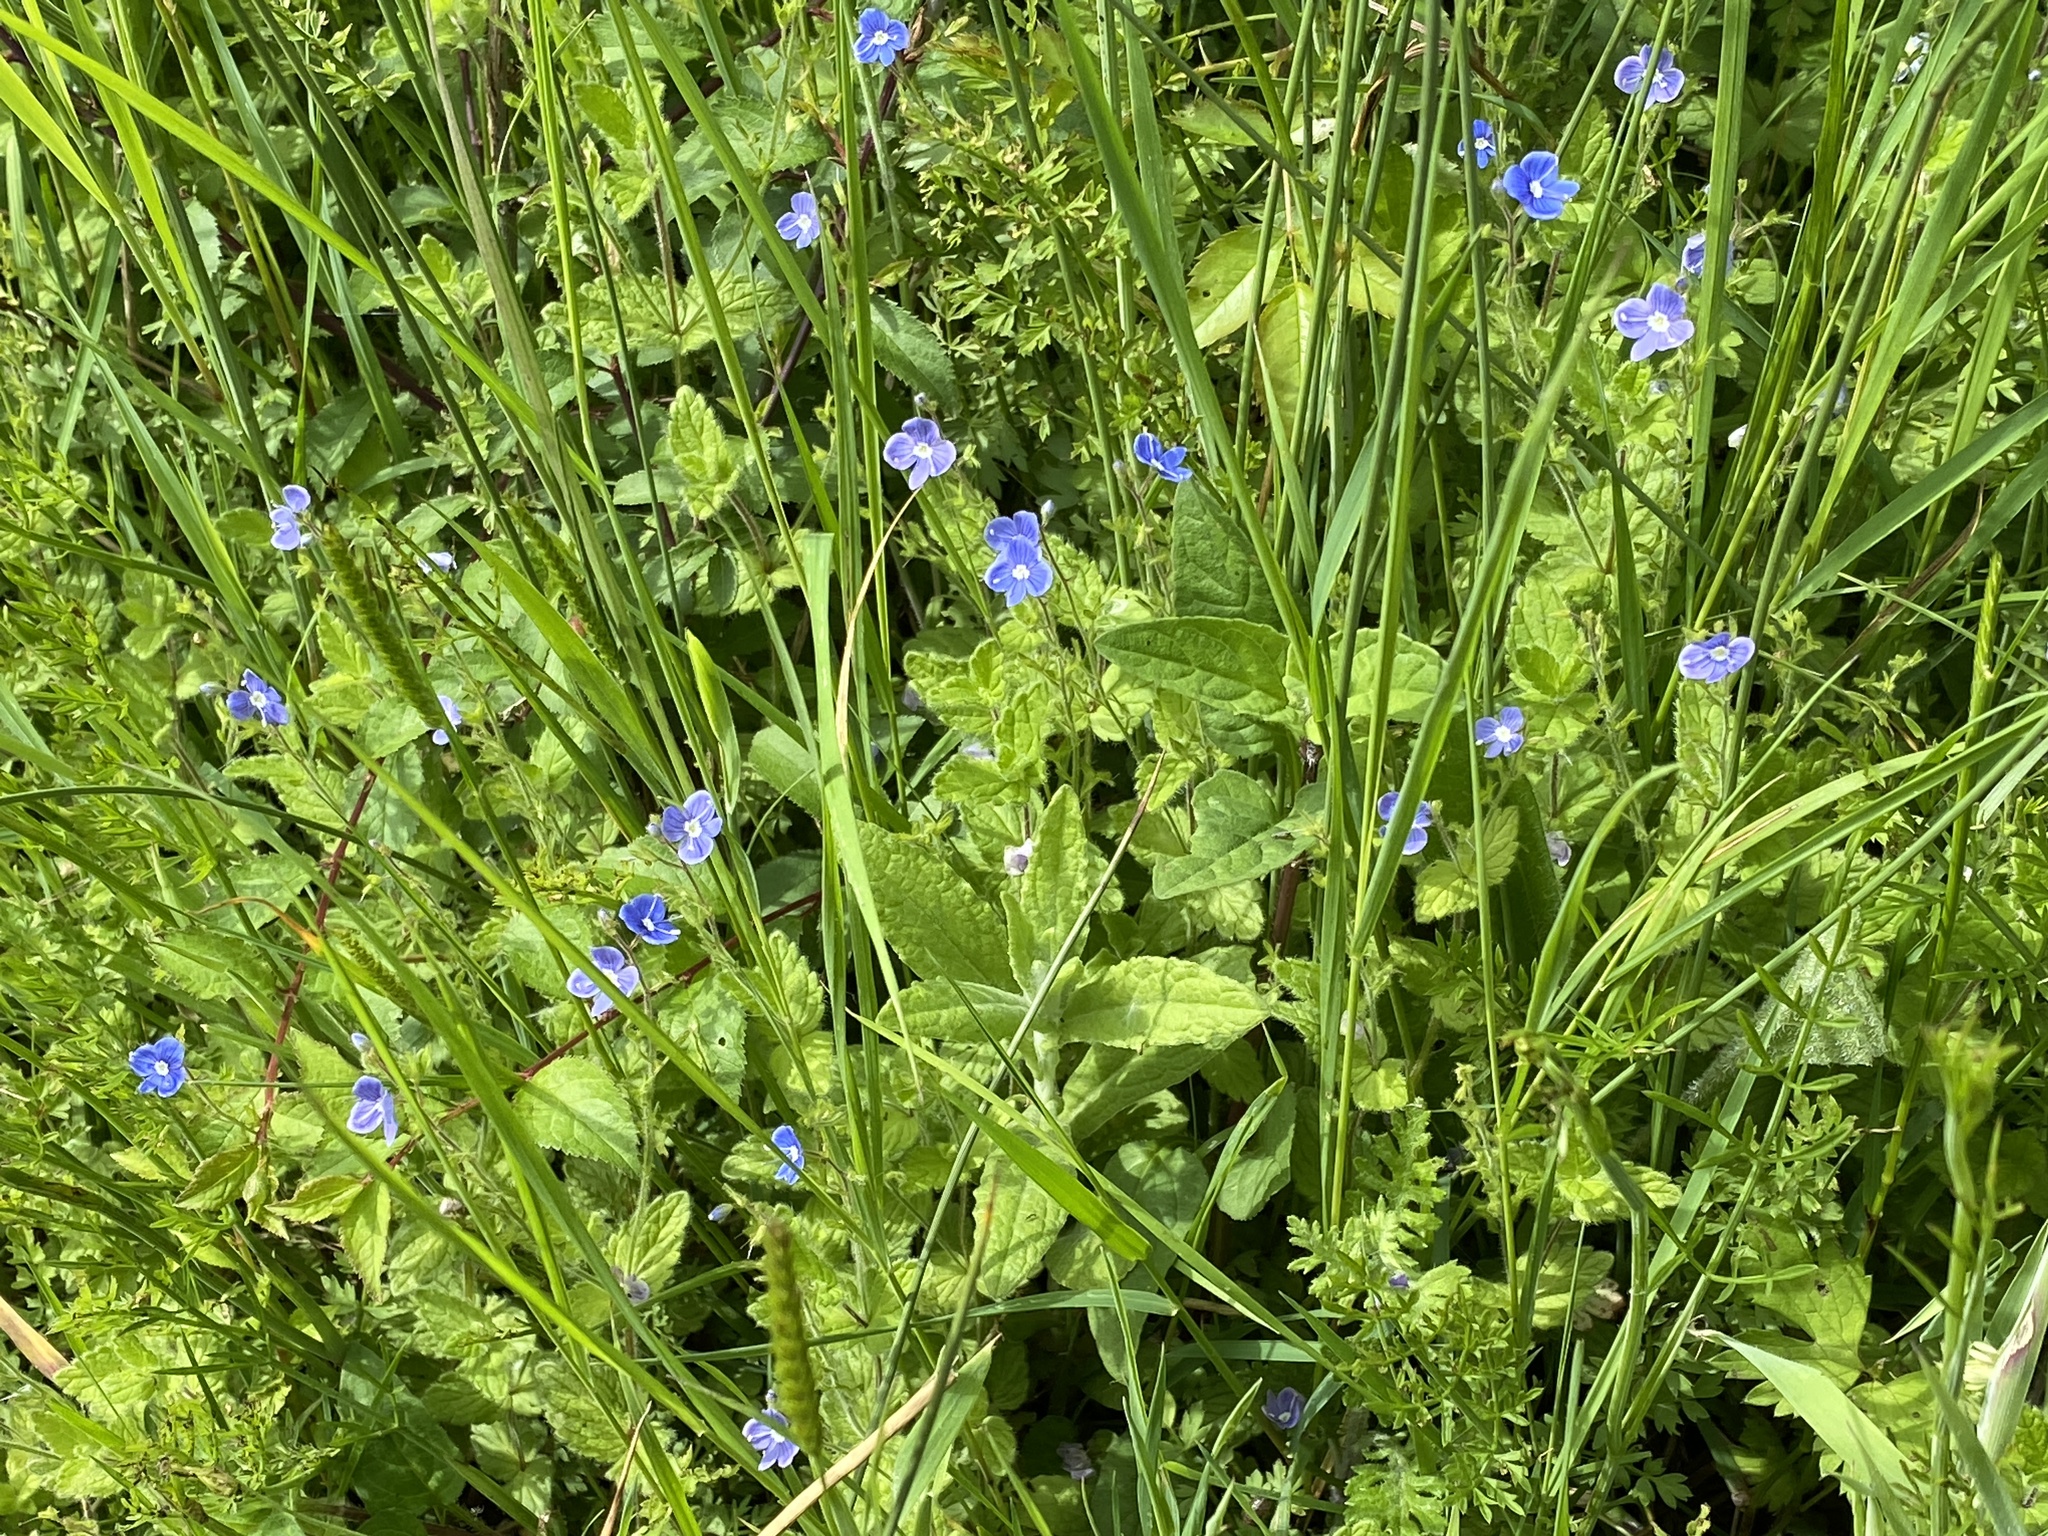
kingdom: Plantae
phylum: Tracheophyta
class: Magnoliopsida
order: Lamiales
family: Plantaginaceae
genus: Veronica
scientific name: Veronica chamaedrys
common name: Germander speedwell
